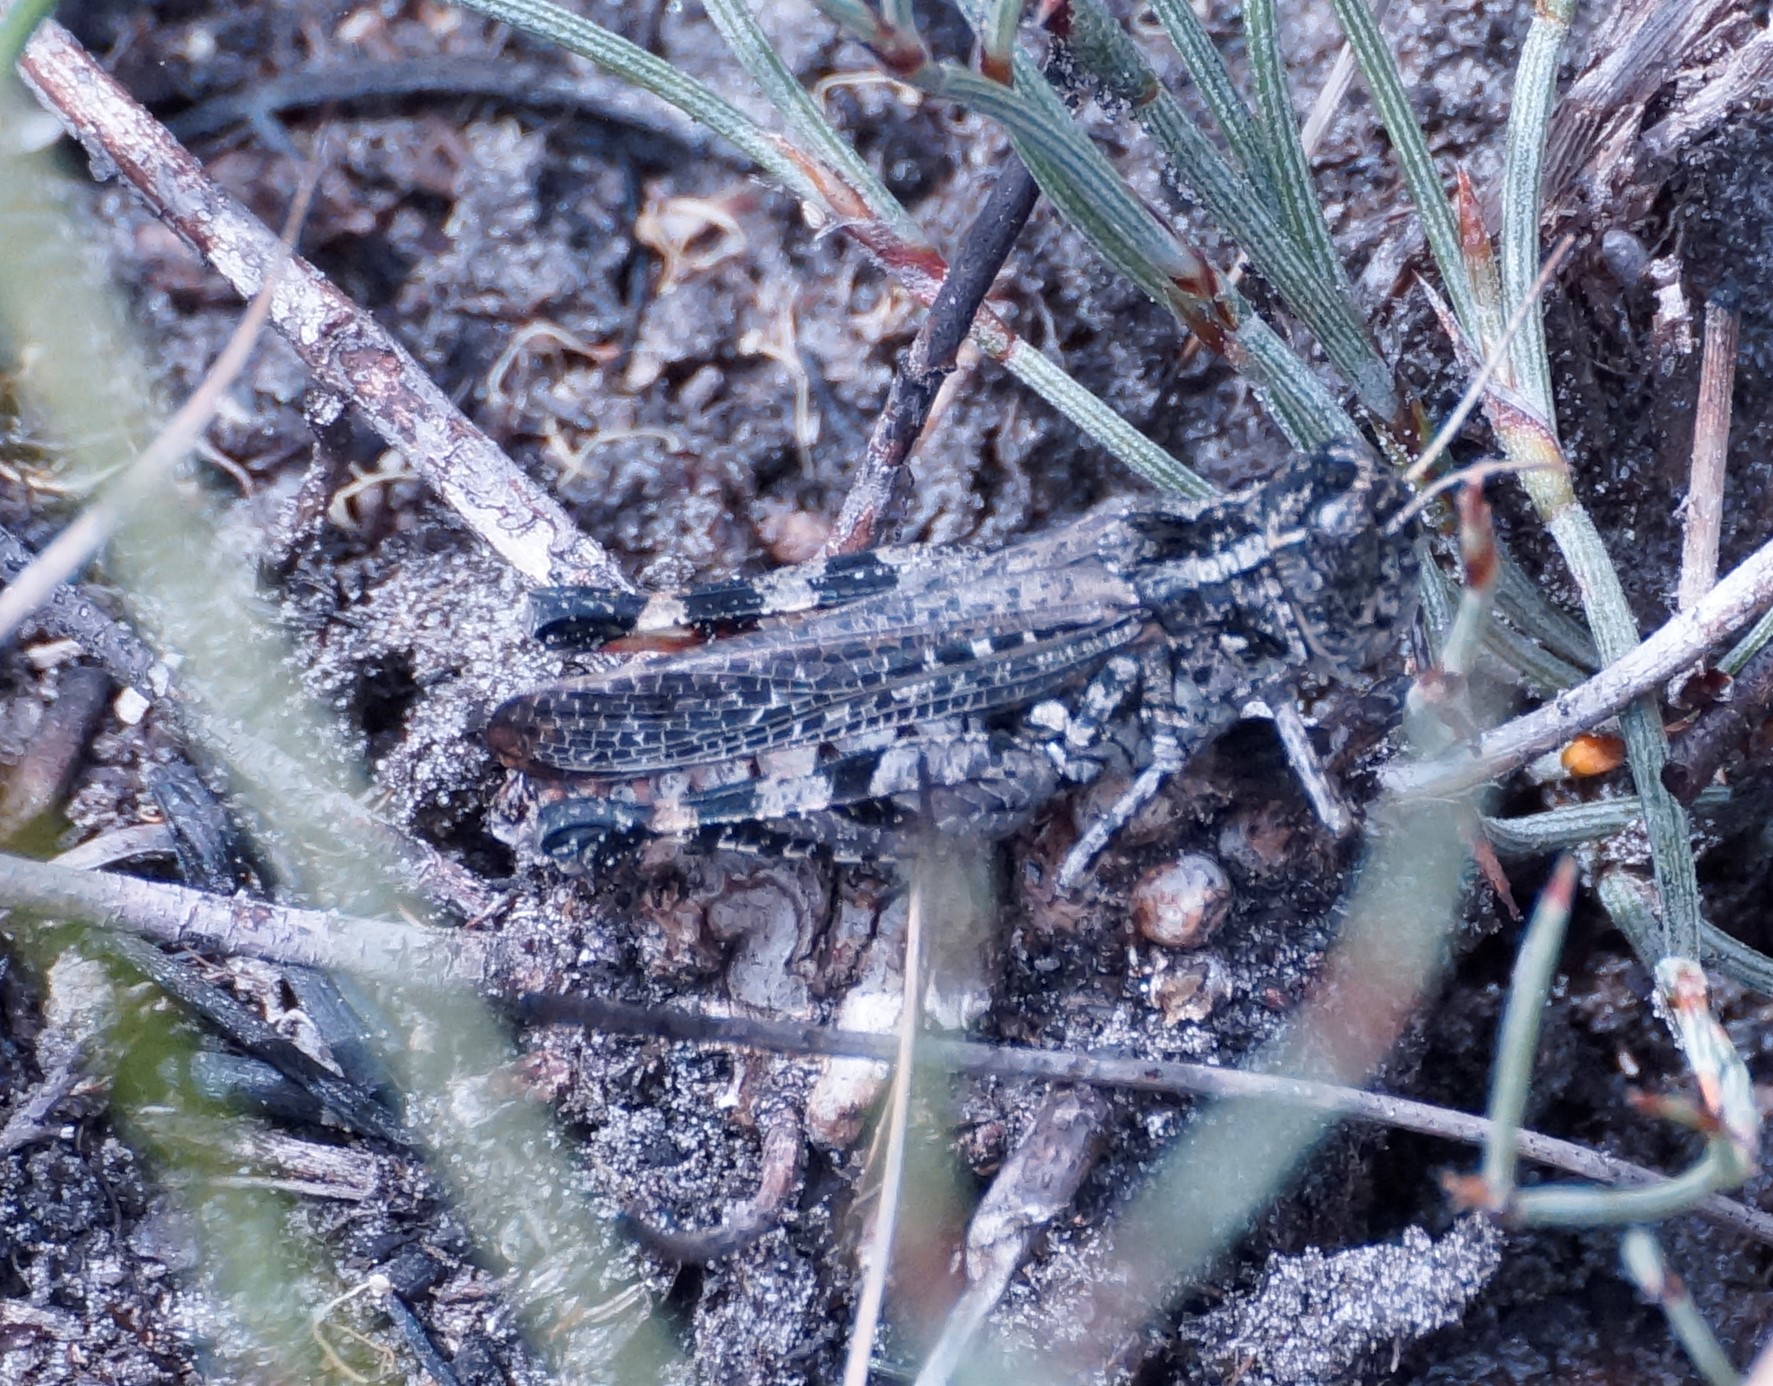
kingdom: Animalia
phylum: Arthropoda
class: Insecta
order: Orthoptera
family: Acrididae
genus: Exarna
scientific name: Exarna includens
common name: Red-legged exarna
